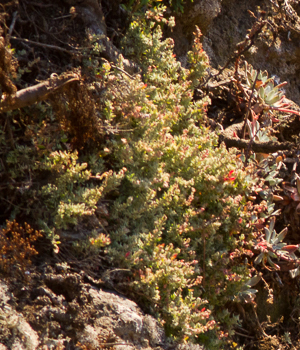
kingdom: Plantae
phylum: Tracheophyta
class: Magnoliopsida
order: Caryophyllales
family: Amaranthaceae
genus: Extriplex
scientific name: Extriplex californica
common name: California saltbush
